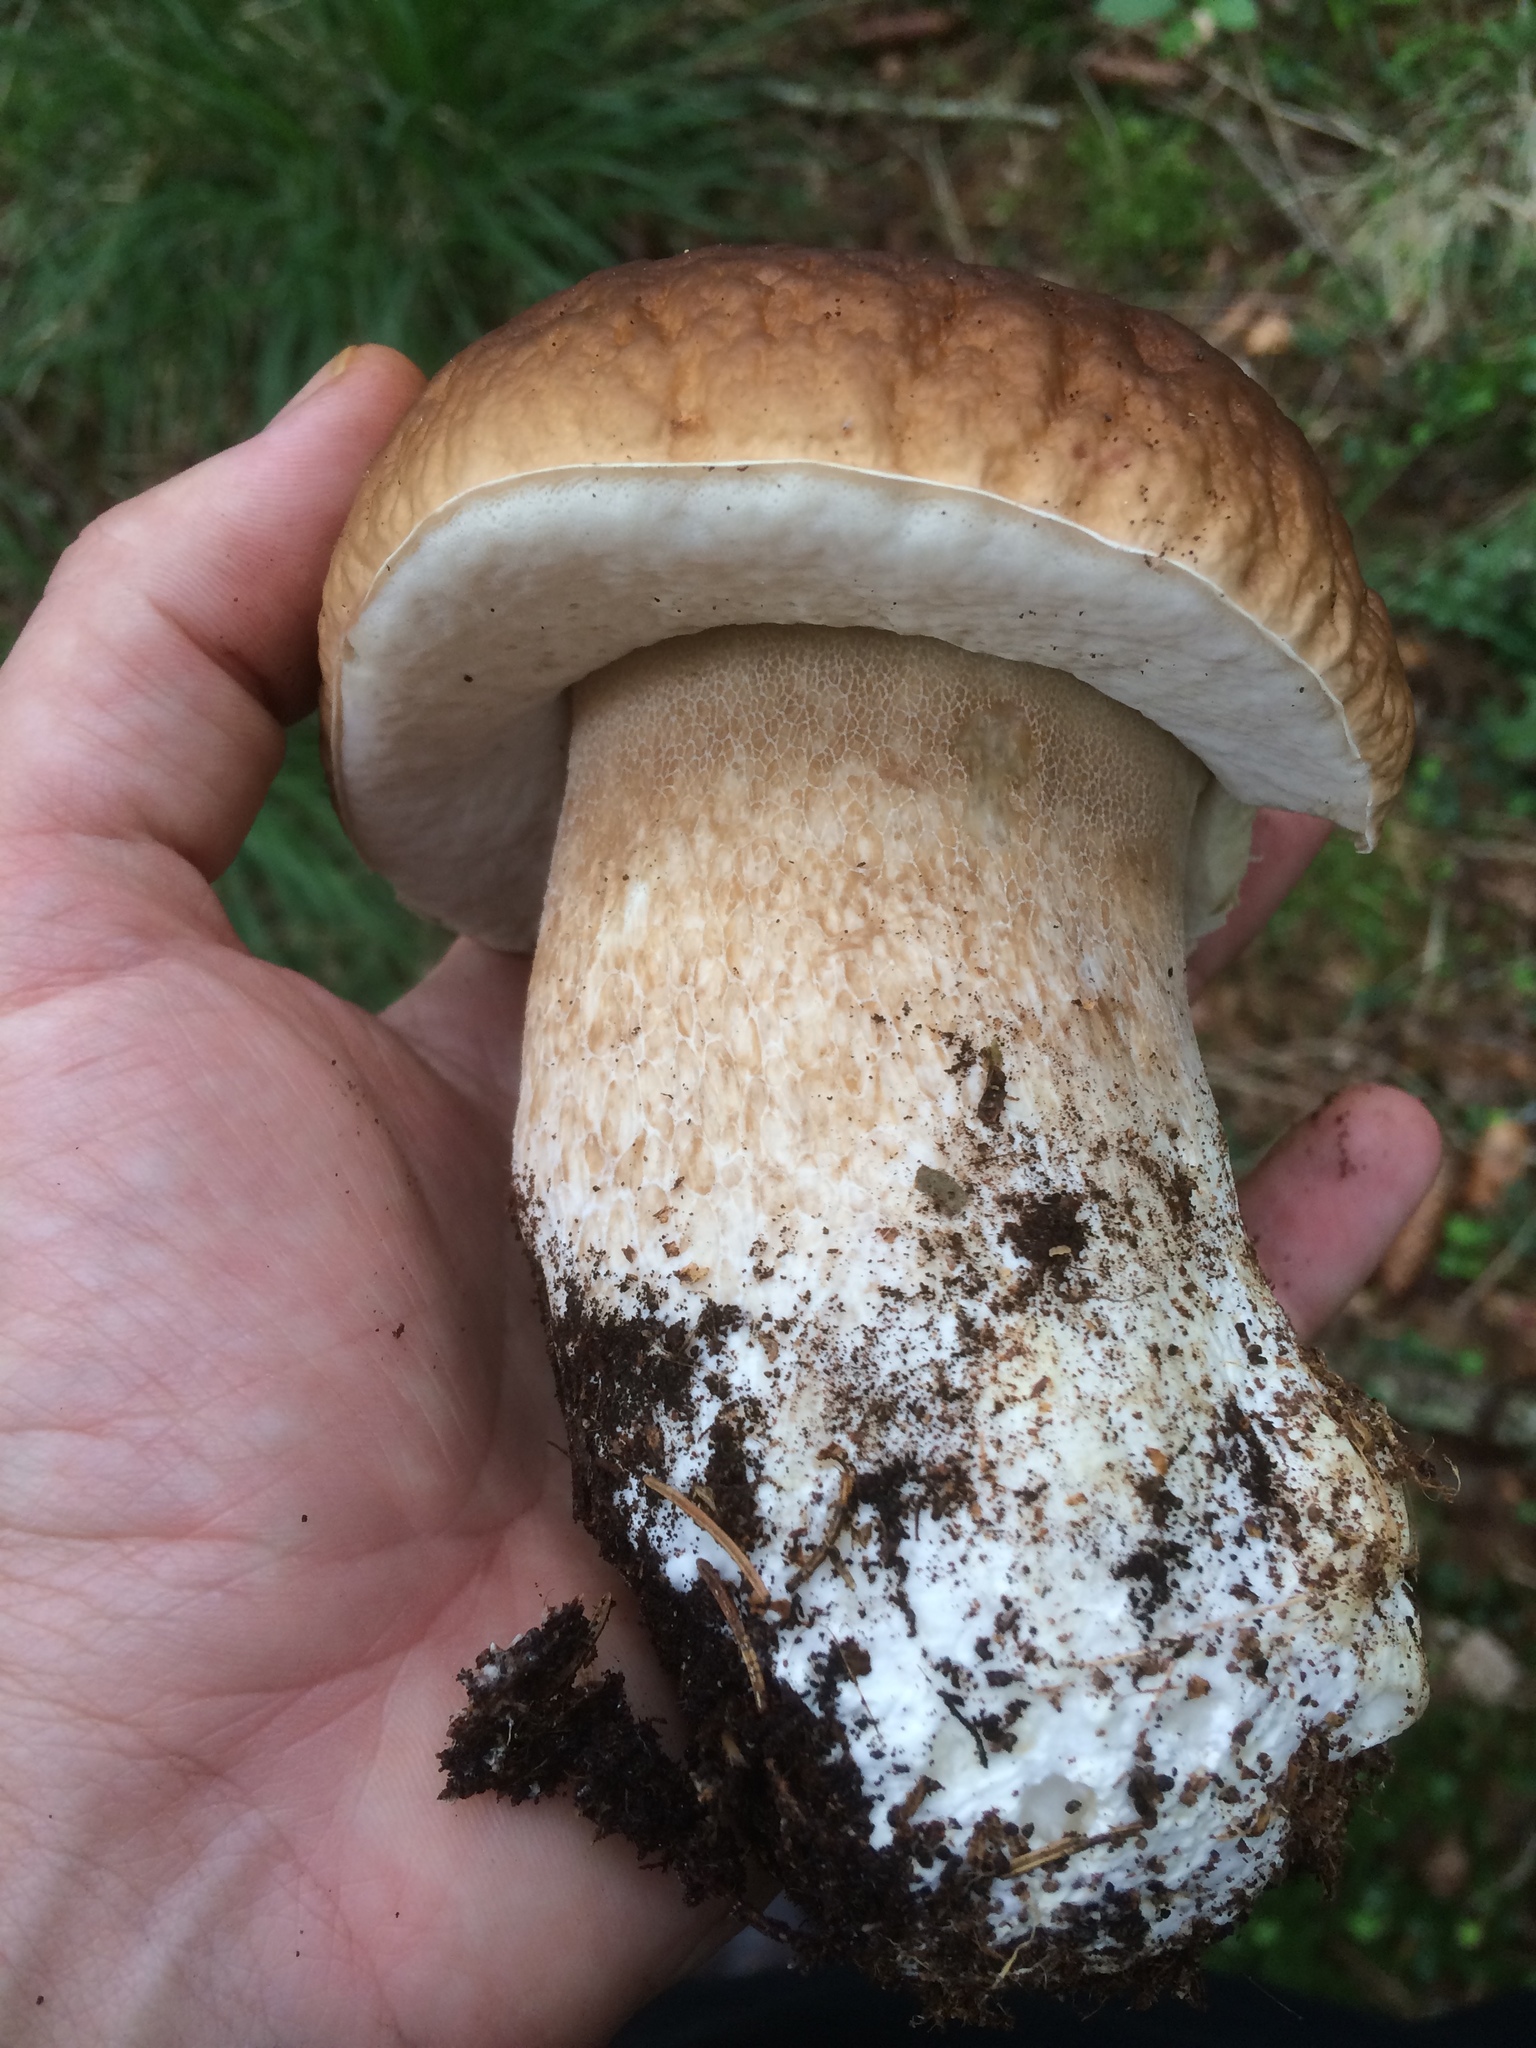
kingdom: Fungi
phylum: Basidiomycota
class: Agaricomycetes
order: Boletales
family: Boletaceae
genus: Boletus
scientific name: Boletus edulis
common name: Cep
